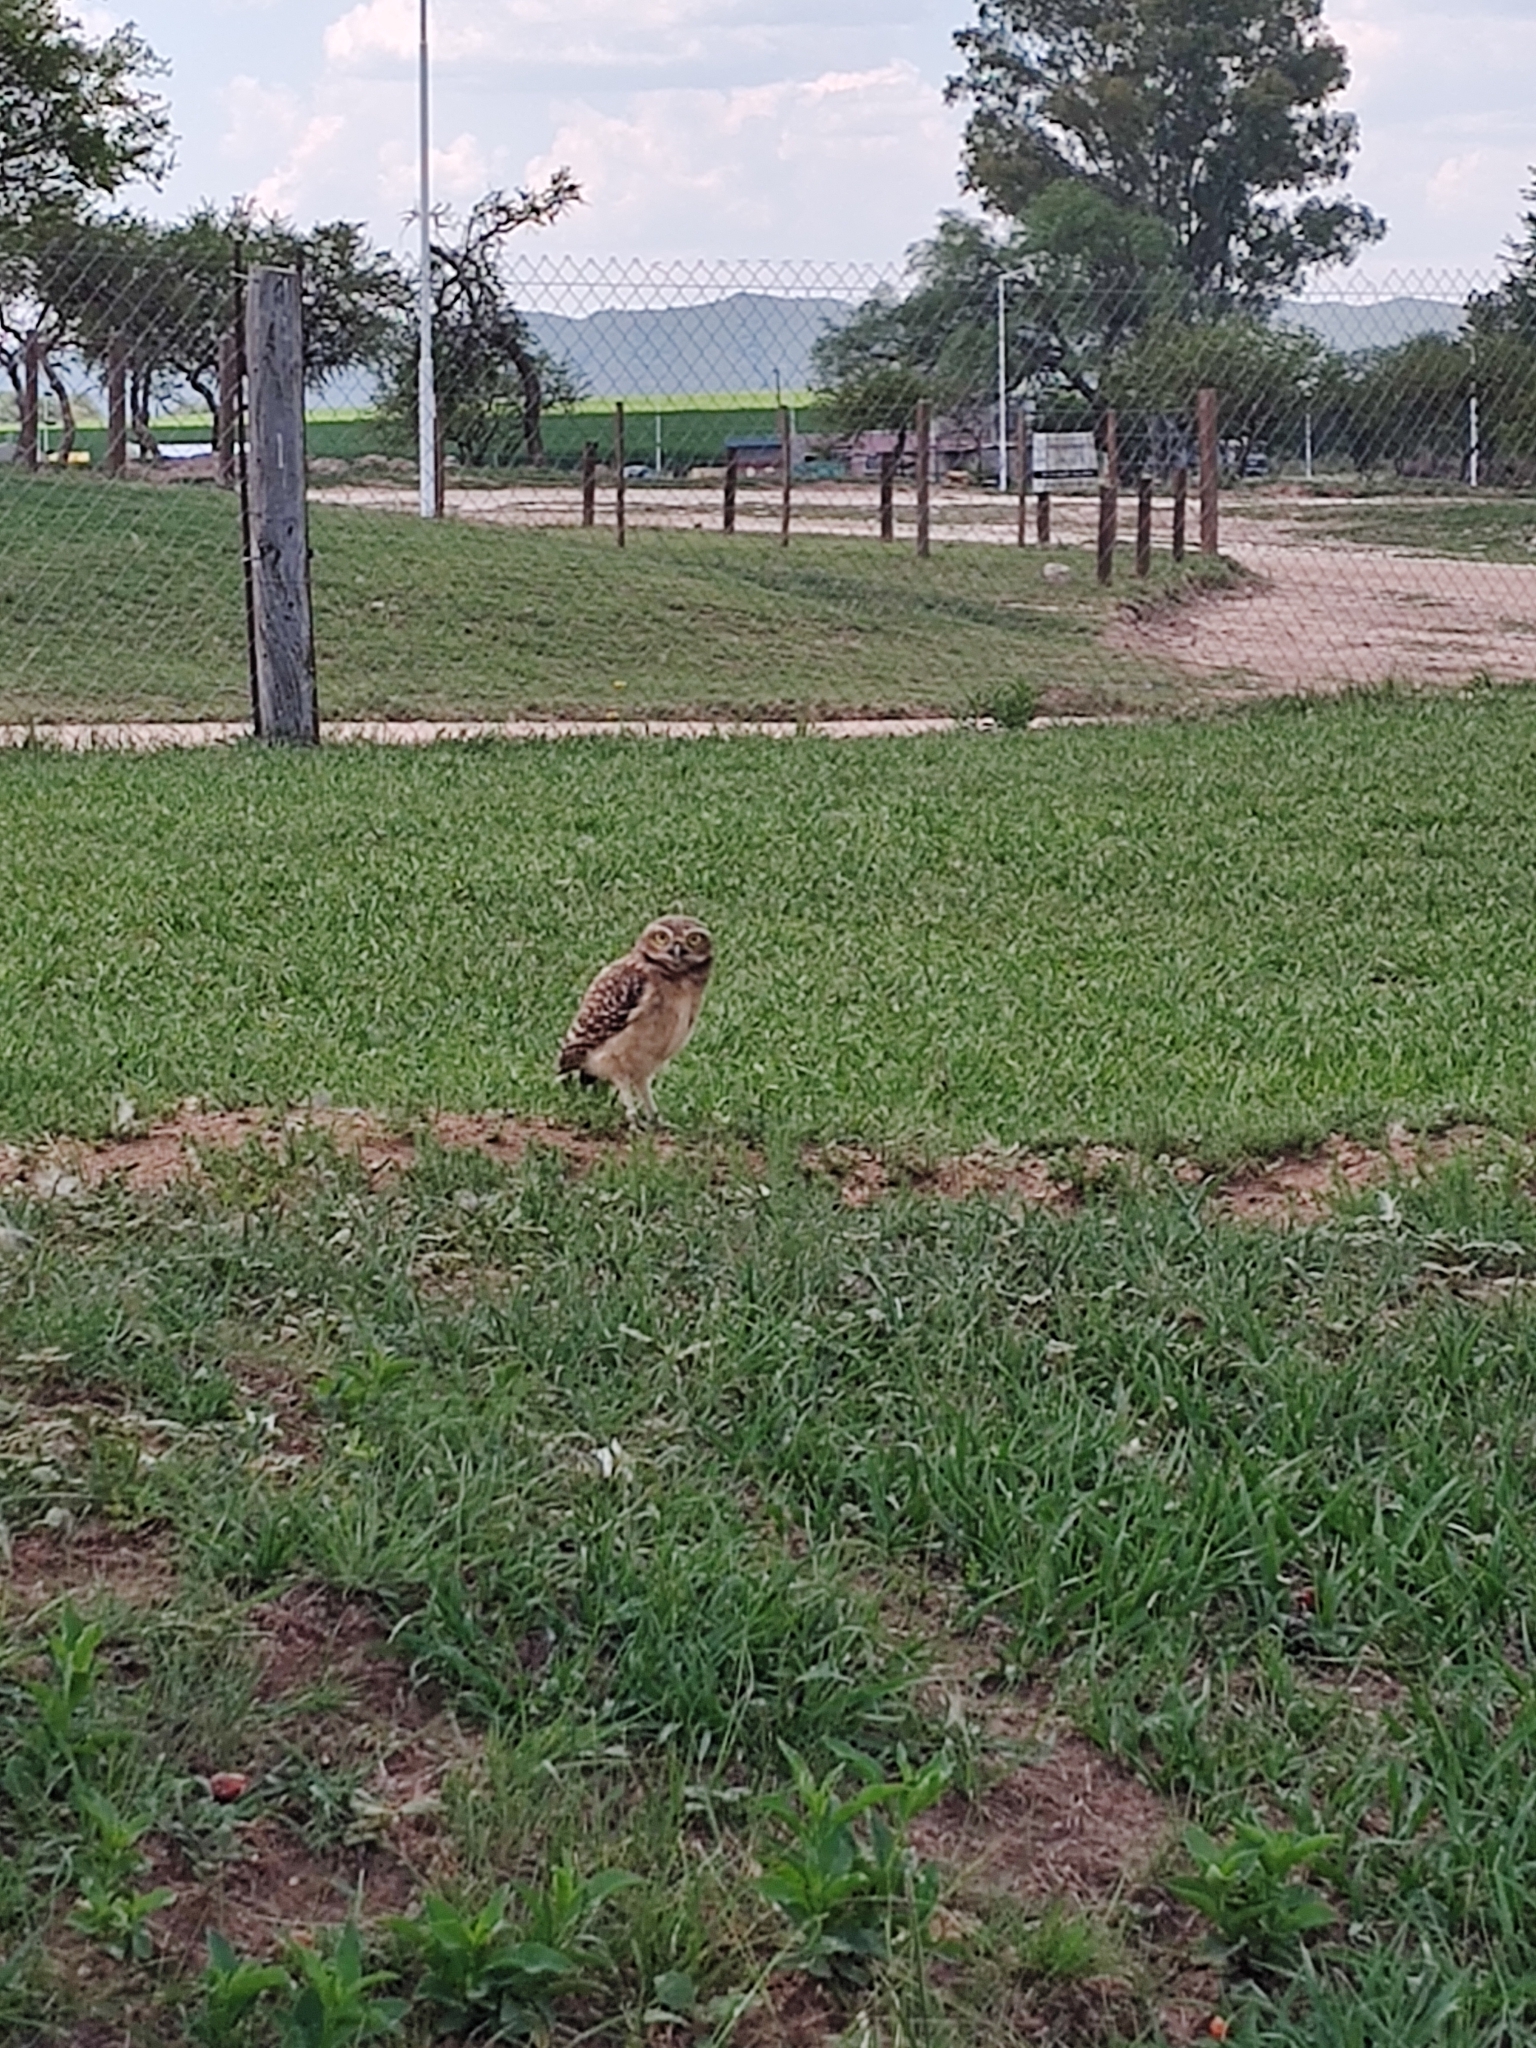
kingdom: Animalia
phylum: Chordata
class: Aves
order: Strigiformes
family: Strigidae
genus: Athene
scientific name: Athene cunicularia
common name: Burrowing owl
